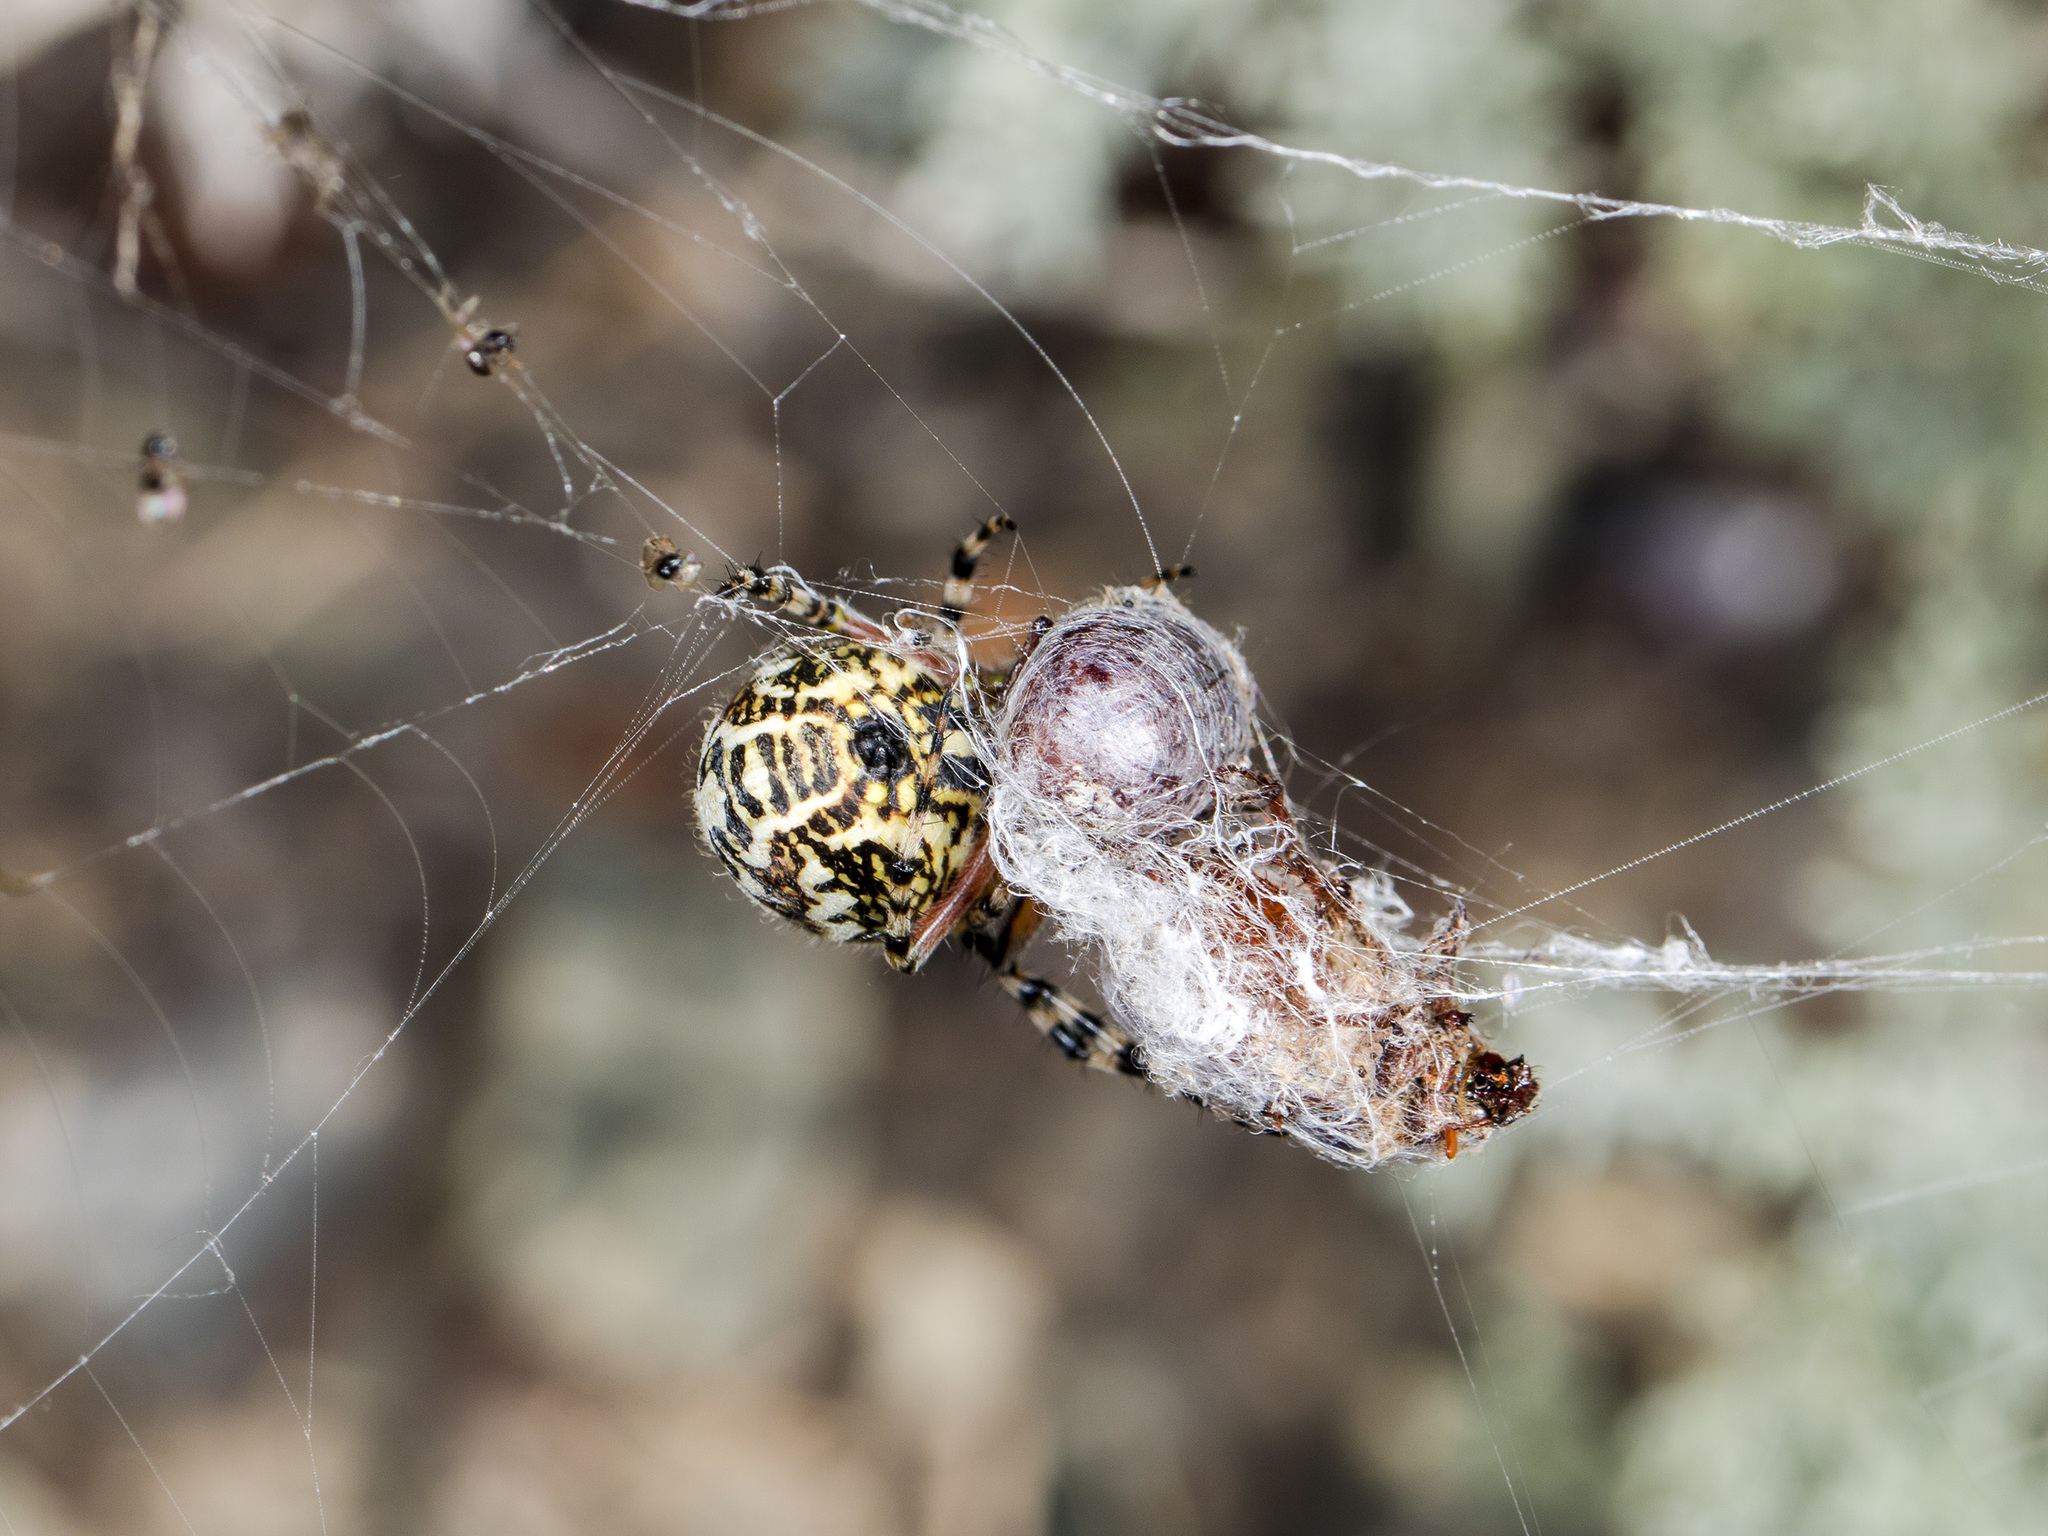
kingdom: Animalia
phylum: Arthropoda
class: Arachnida
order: Araneae
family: Araneidae
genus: Aculepeira
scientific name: Aculepeira armida
